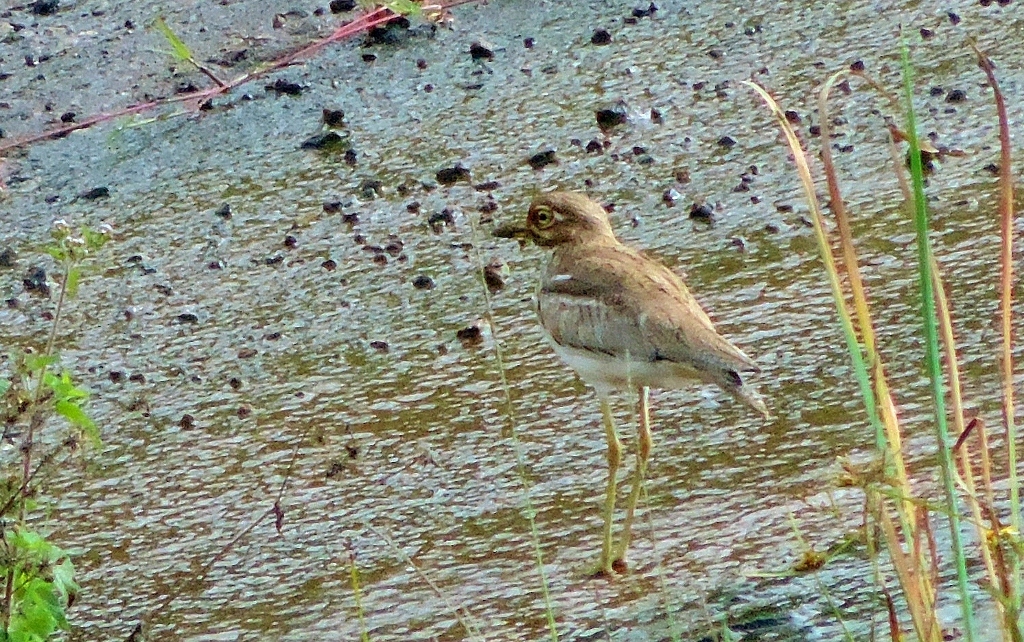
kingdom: Animalia
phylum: Chordata
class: Aves
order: Charadriiformes
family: Burhinidae
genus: Burhinus
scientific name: Burhinus vermiculatus
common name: Water thick-knee
